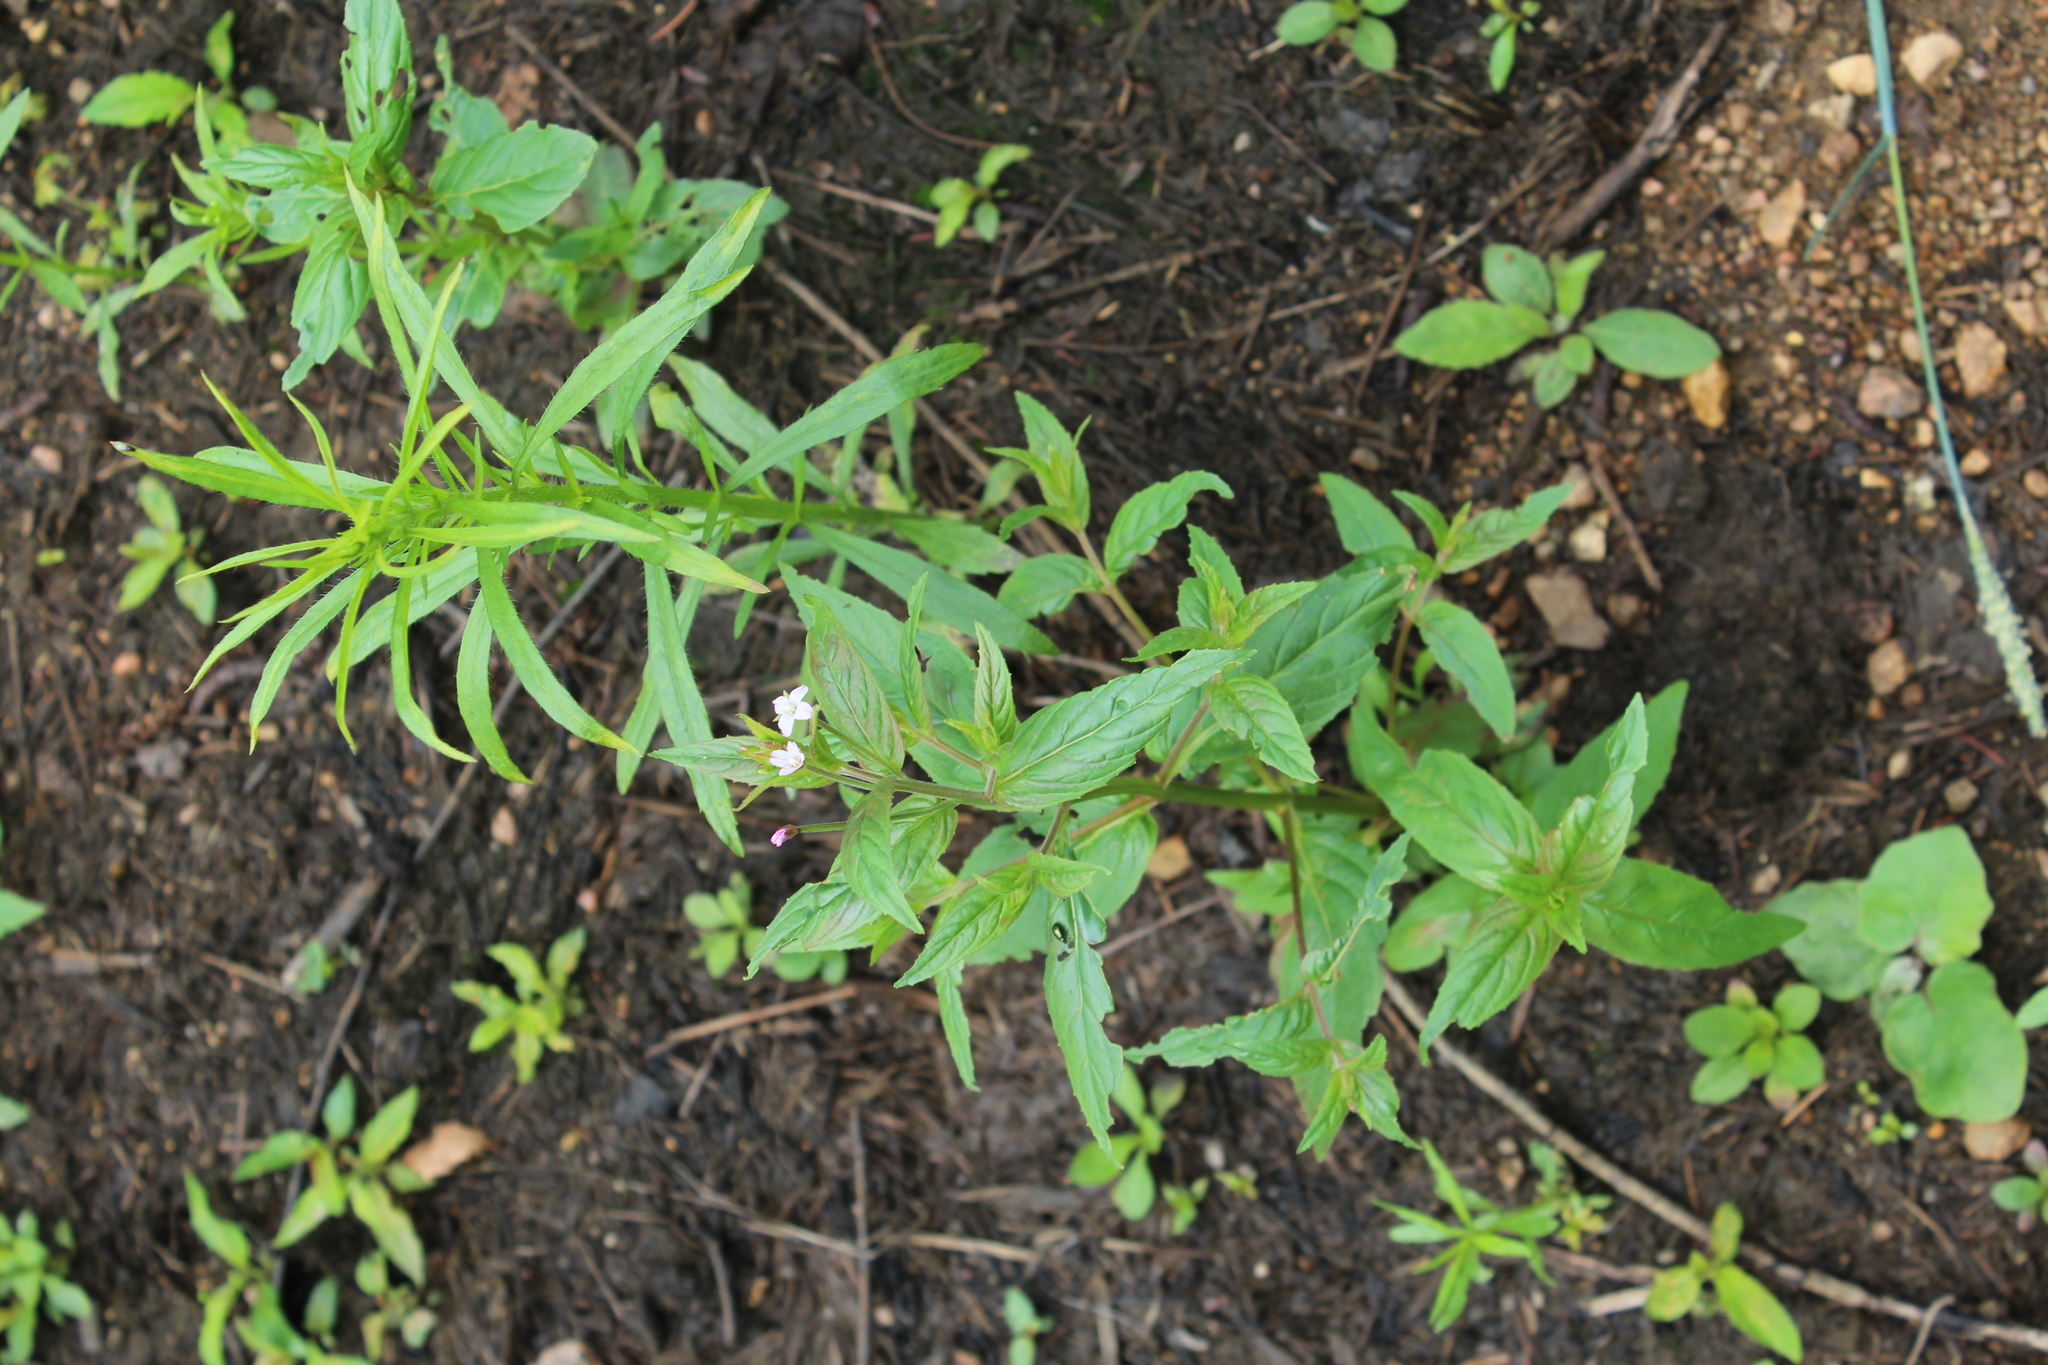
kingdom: Plantae
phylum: Tracheophyta
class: Magnoliopsida
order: Myrtales
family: Onagraceae
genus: Epilobium
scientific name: Epilobium ciliatum
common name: American willowherb
